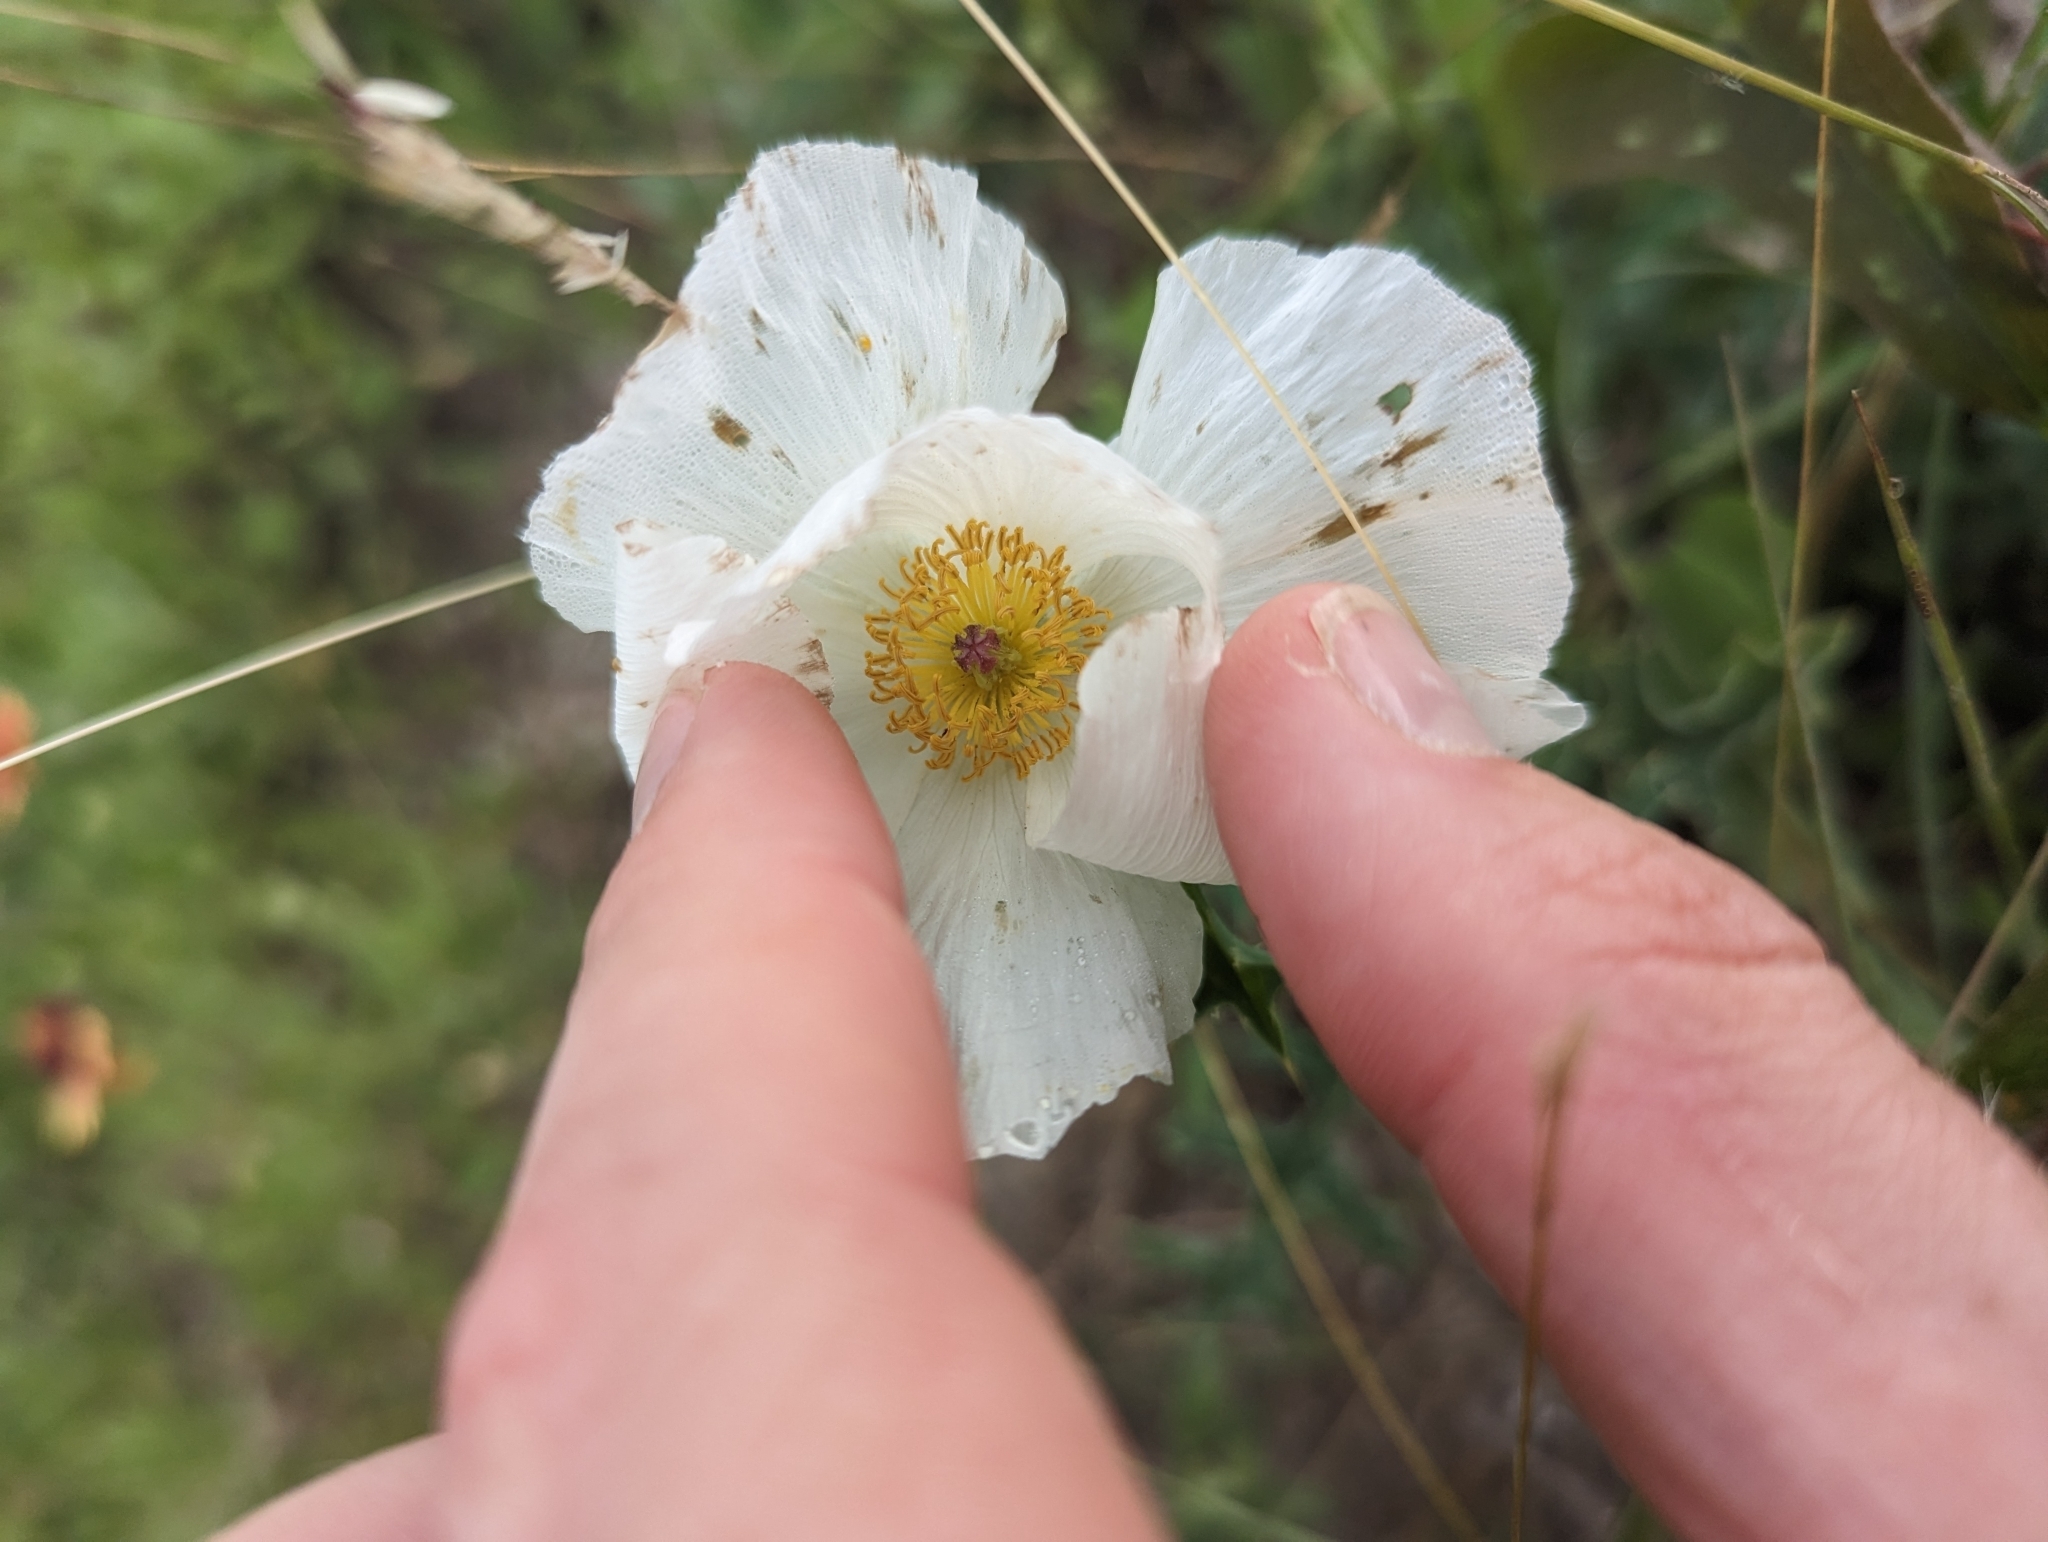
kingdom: Plantae
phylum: Tracheophyta
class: Magnoliopsida
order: Ranunculales
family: Papaveraceae
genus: Argemone
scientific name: Argemone albiflora
